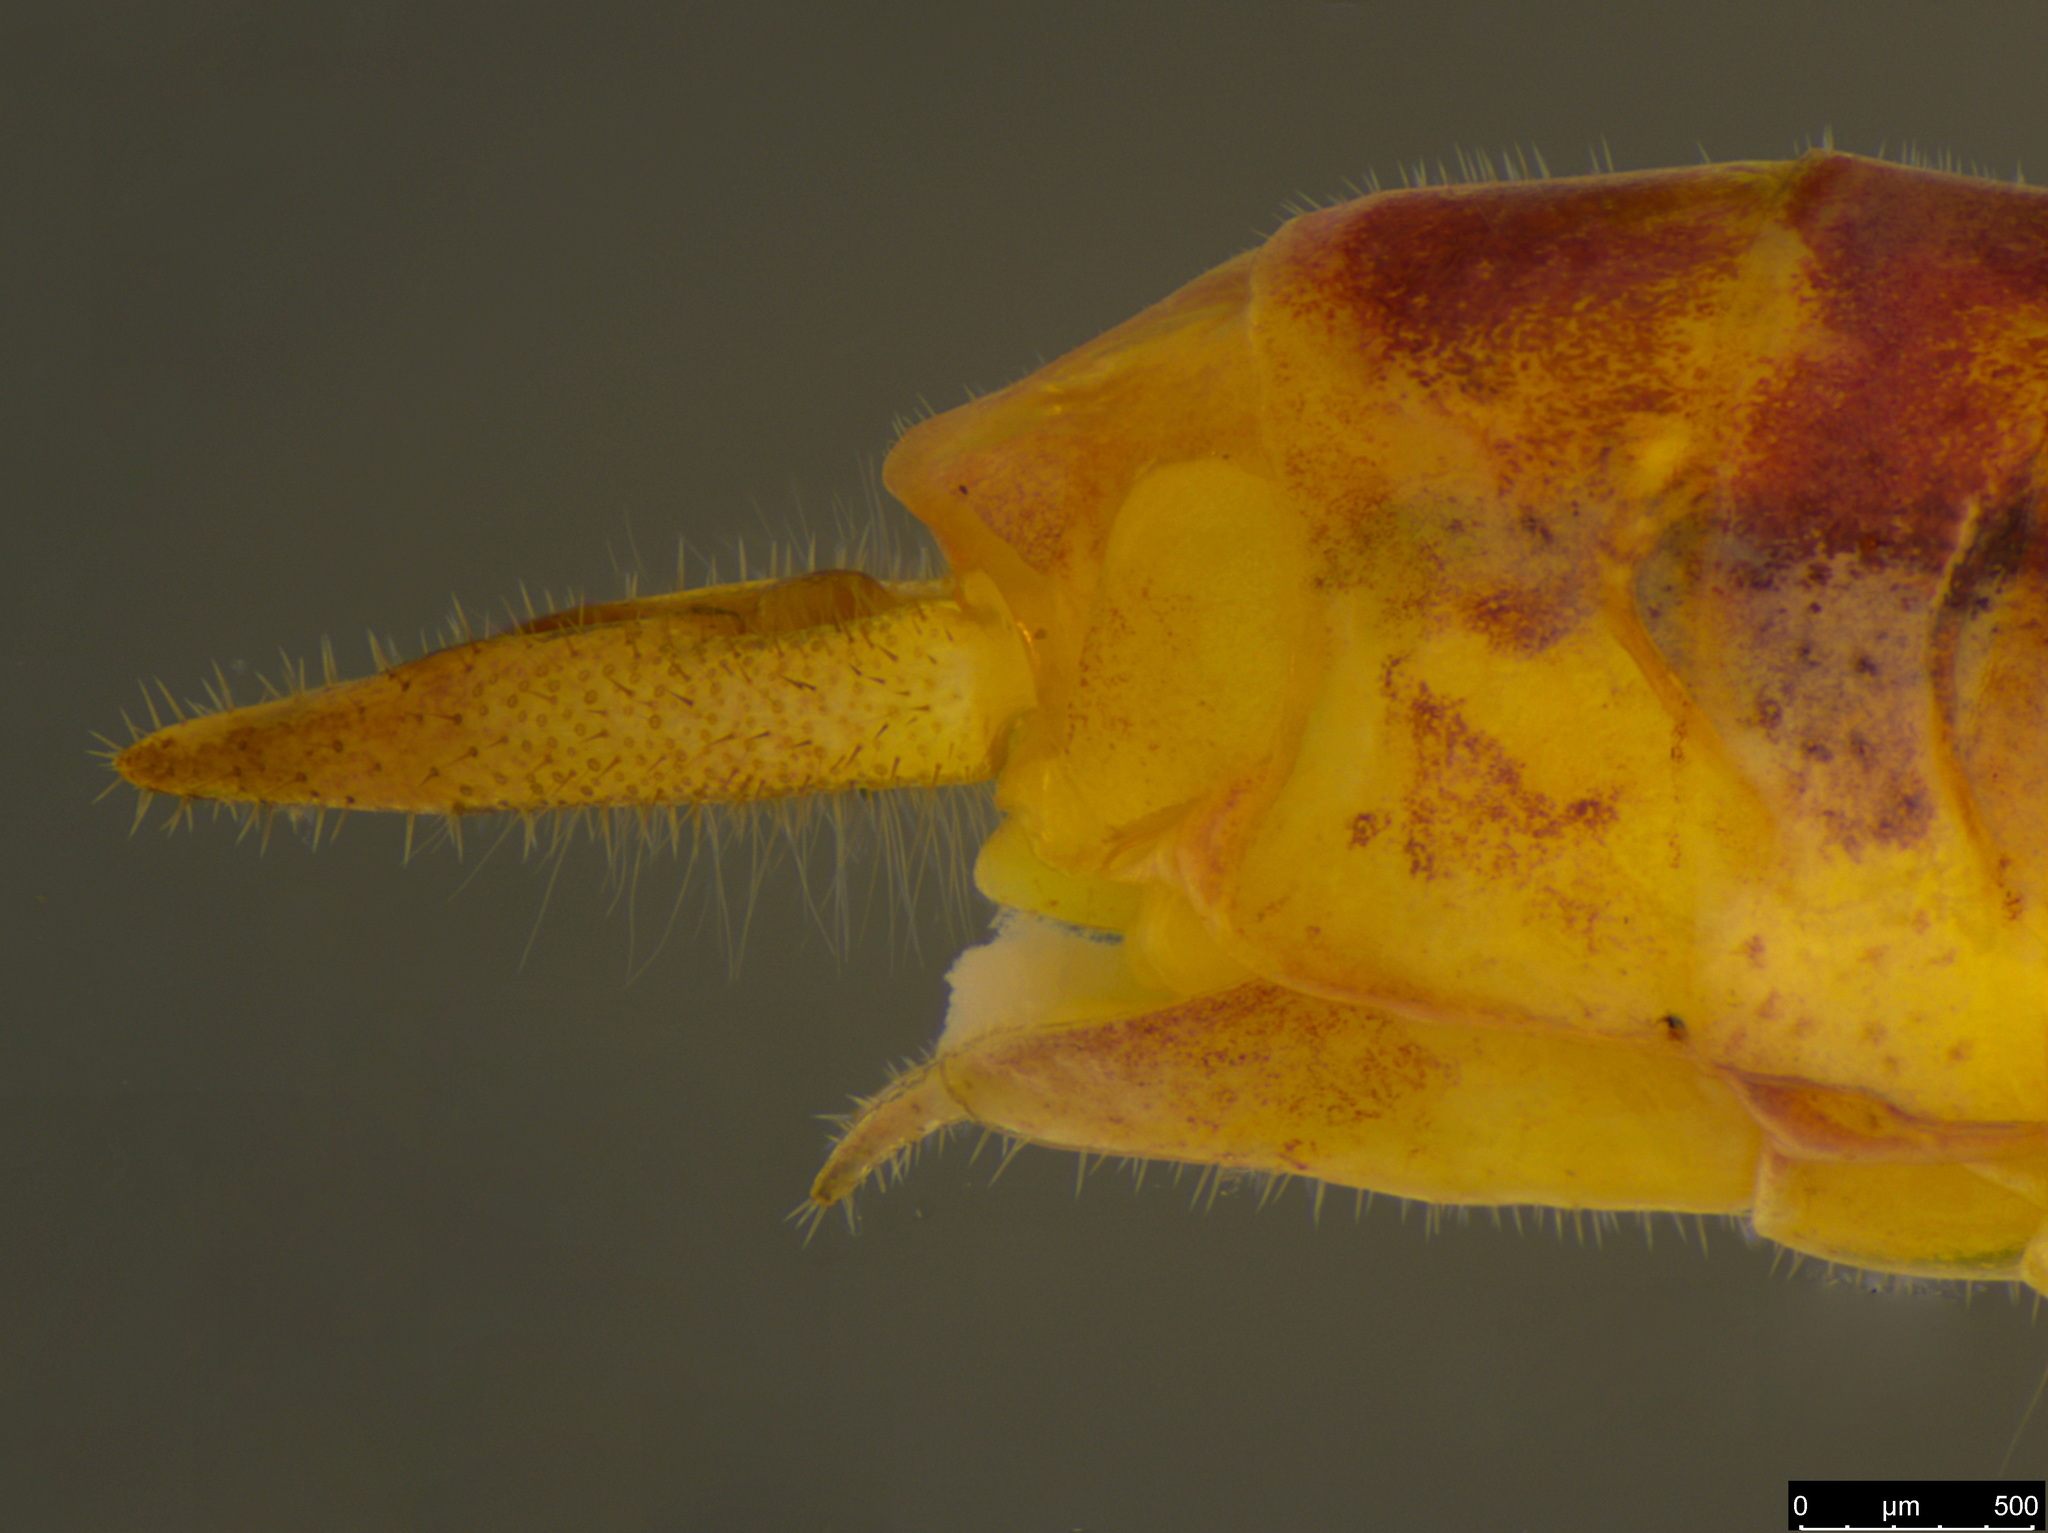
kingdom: Animalia
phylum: Arthropoda
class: Insecta
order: Orthoptera
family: Tettigoniidae
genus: Conocephalus
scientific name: Conocephalus upoluensis
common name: Upolu meadow katydid
